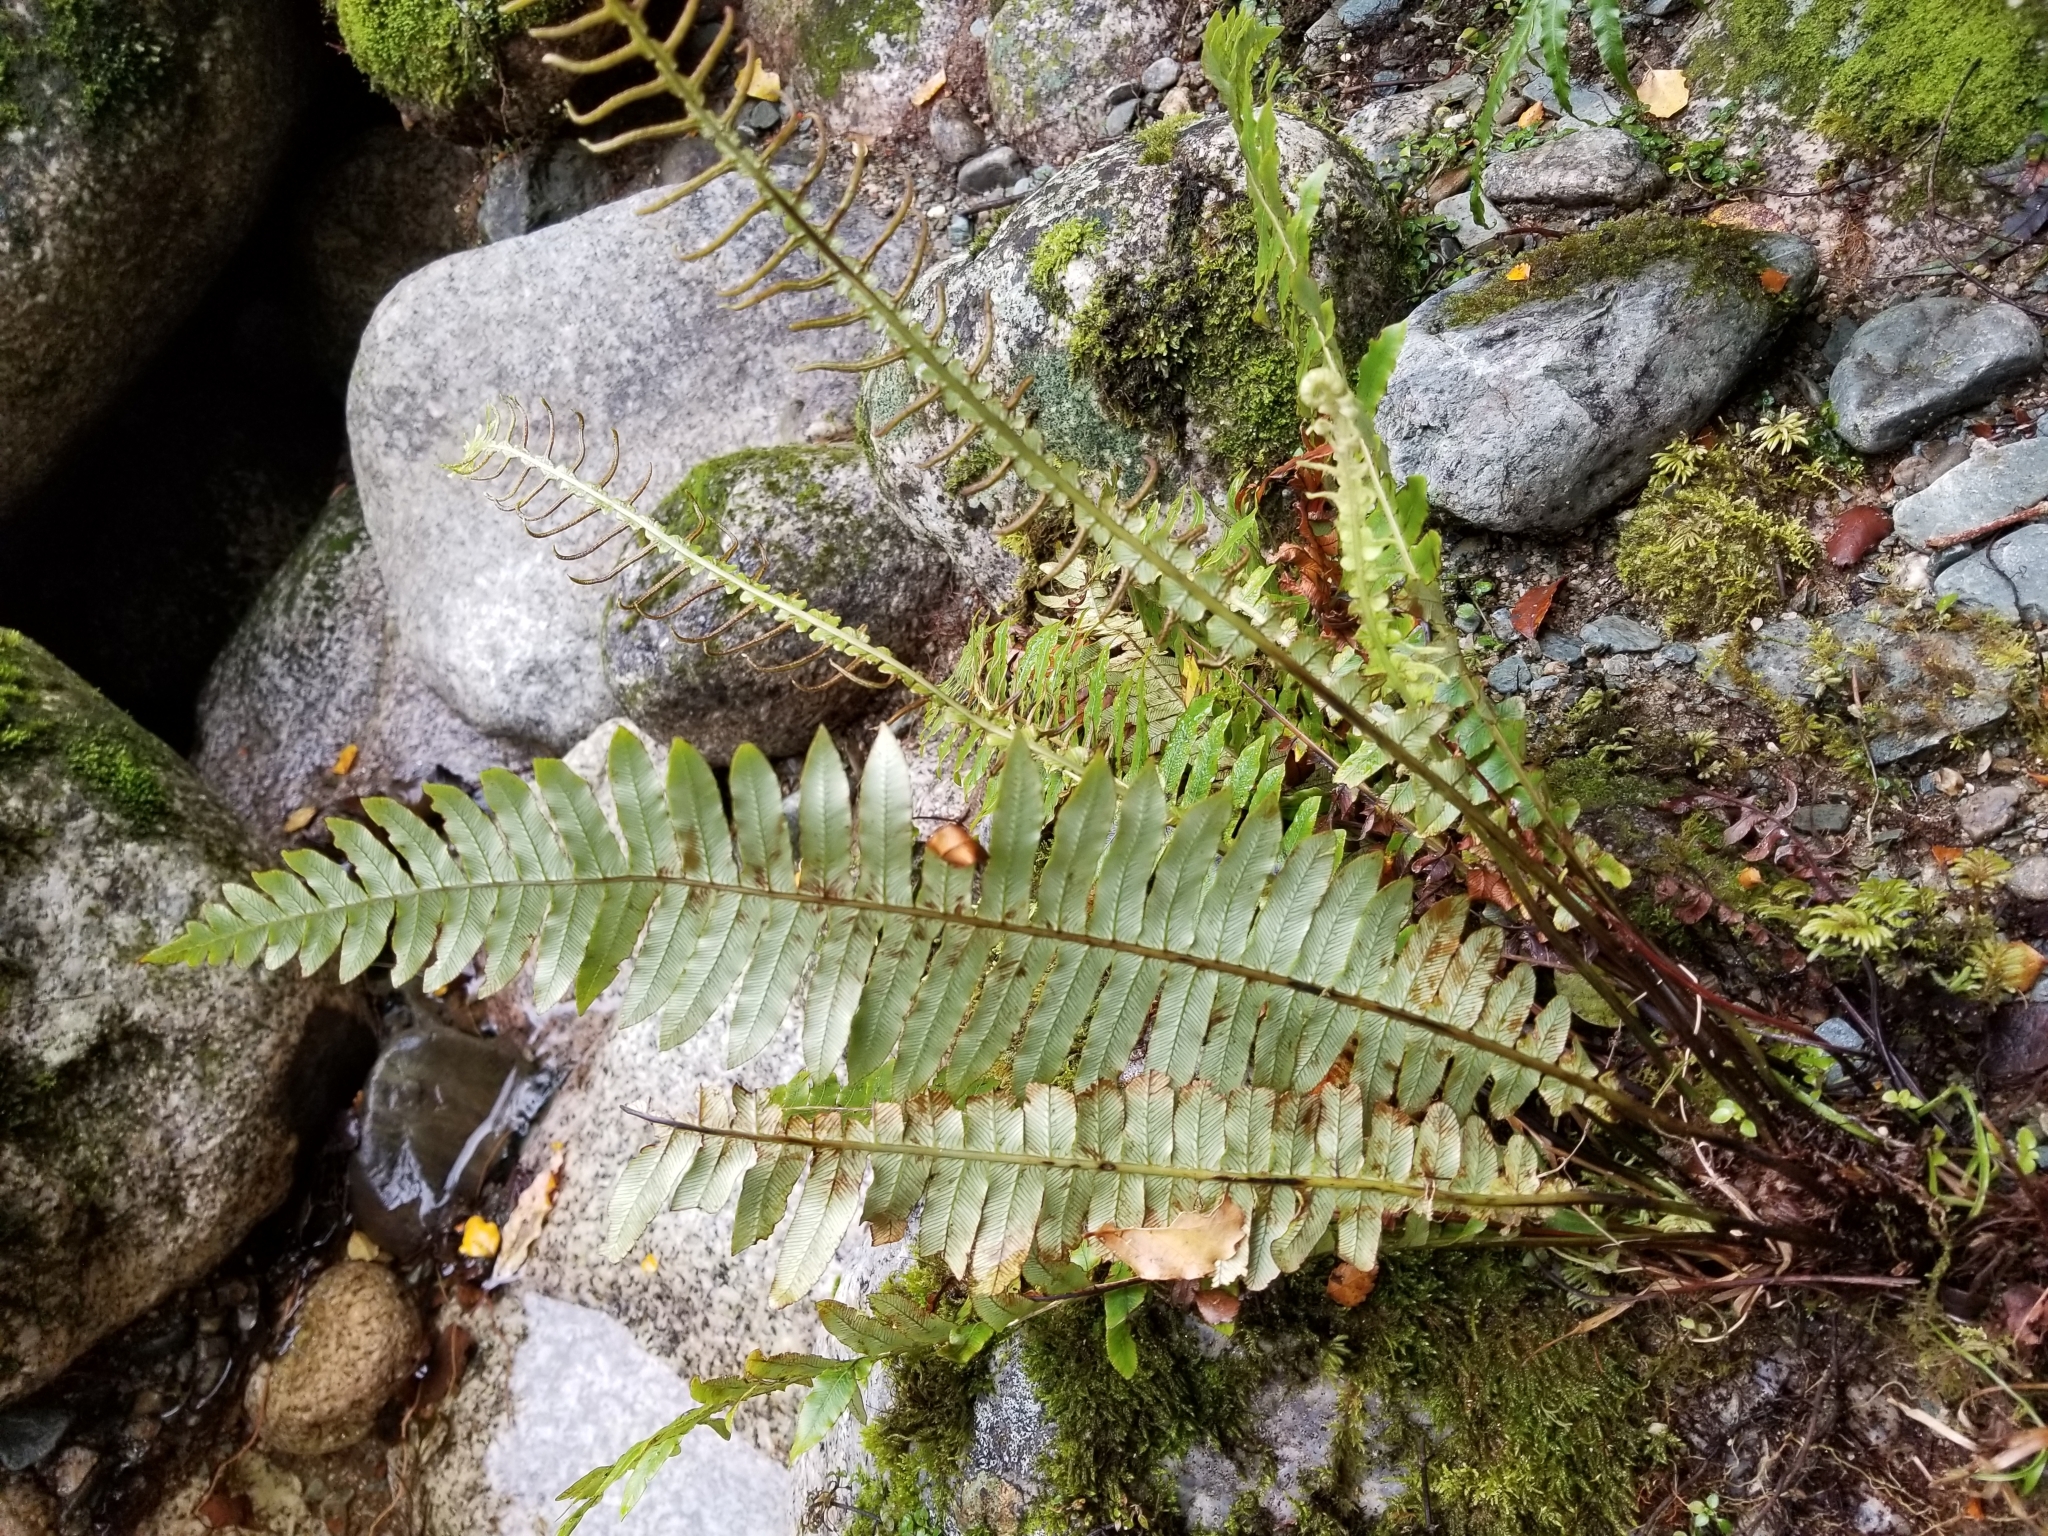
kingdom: Plantae
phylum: Tracheophyta
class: Polypodiopsida
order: Polypodiales
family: Blechnaceae
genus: Lomaria
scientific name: Lomaria discolor
